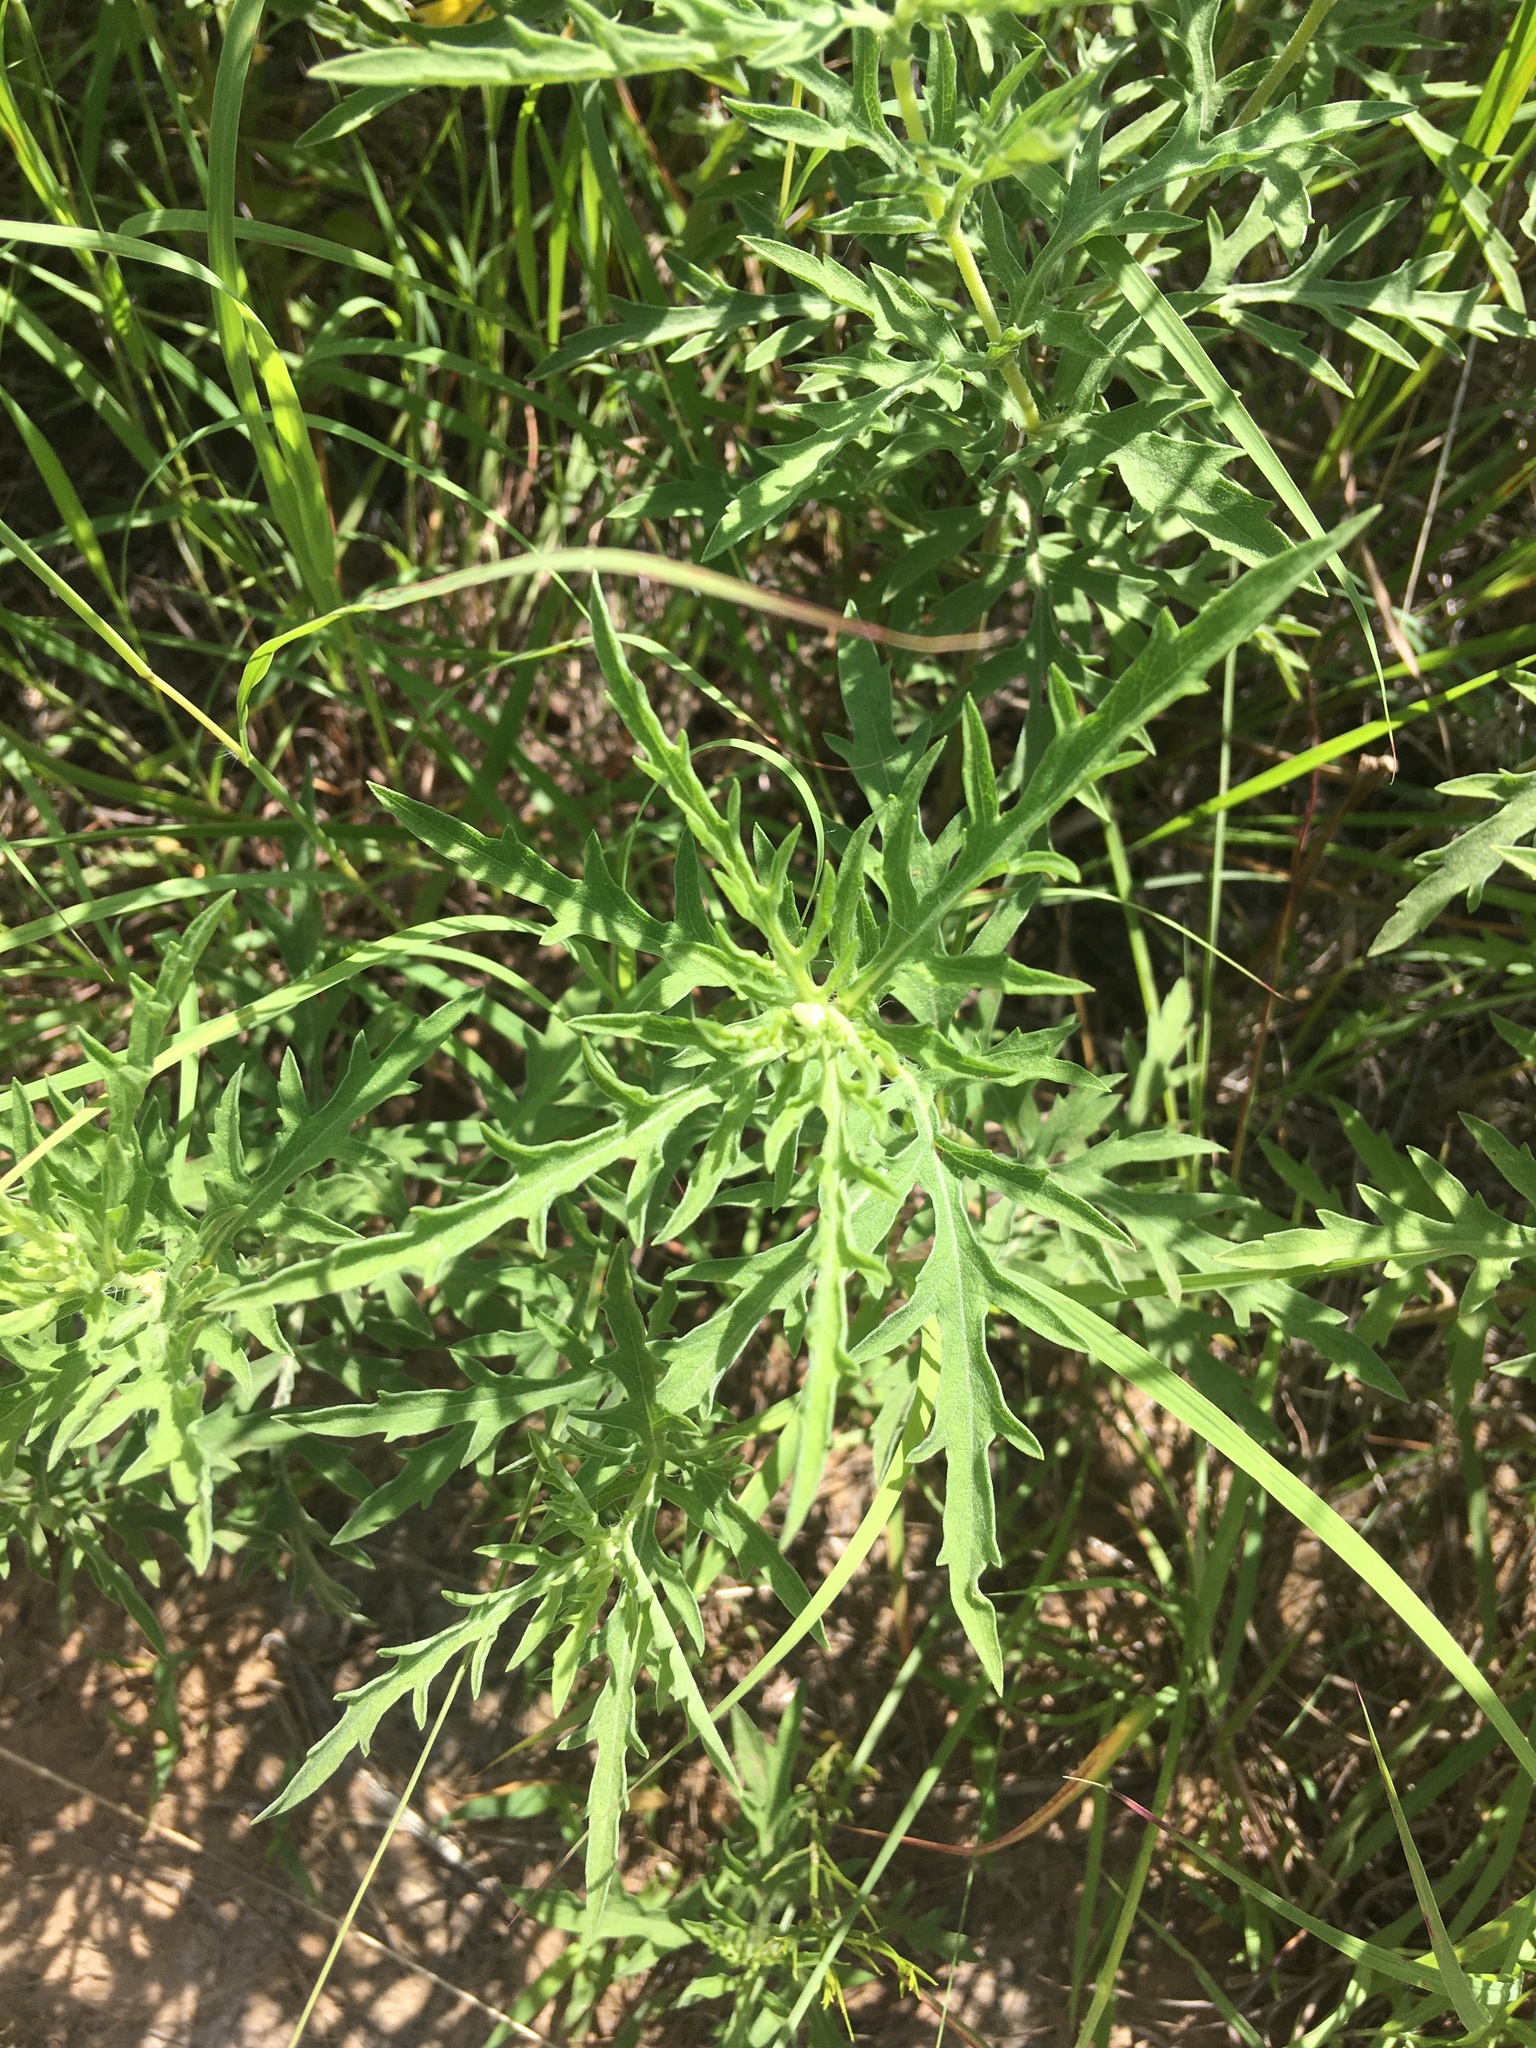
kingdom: Plantae
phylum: Tracheophyta
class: Magnoliopsida
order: Asterales
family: Asteraceae
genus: Ambrosia
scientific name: Ambrosia psilostachya
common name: Perennial ragweed
